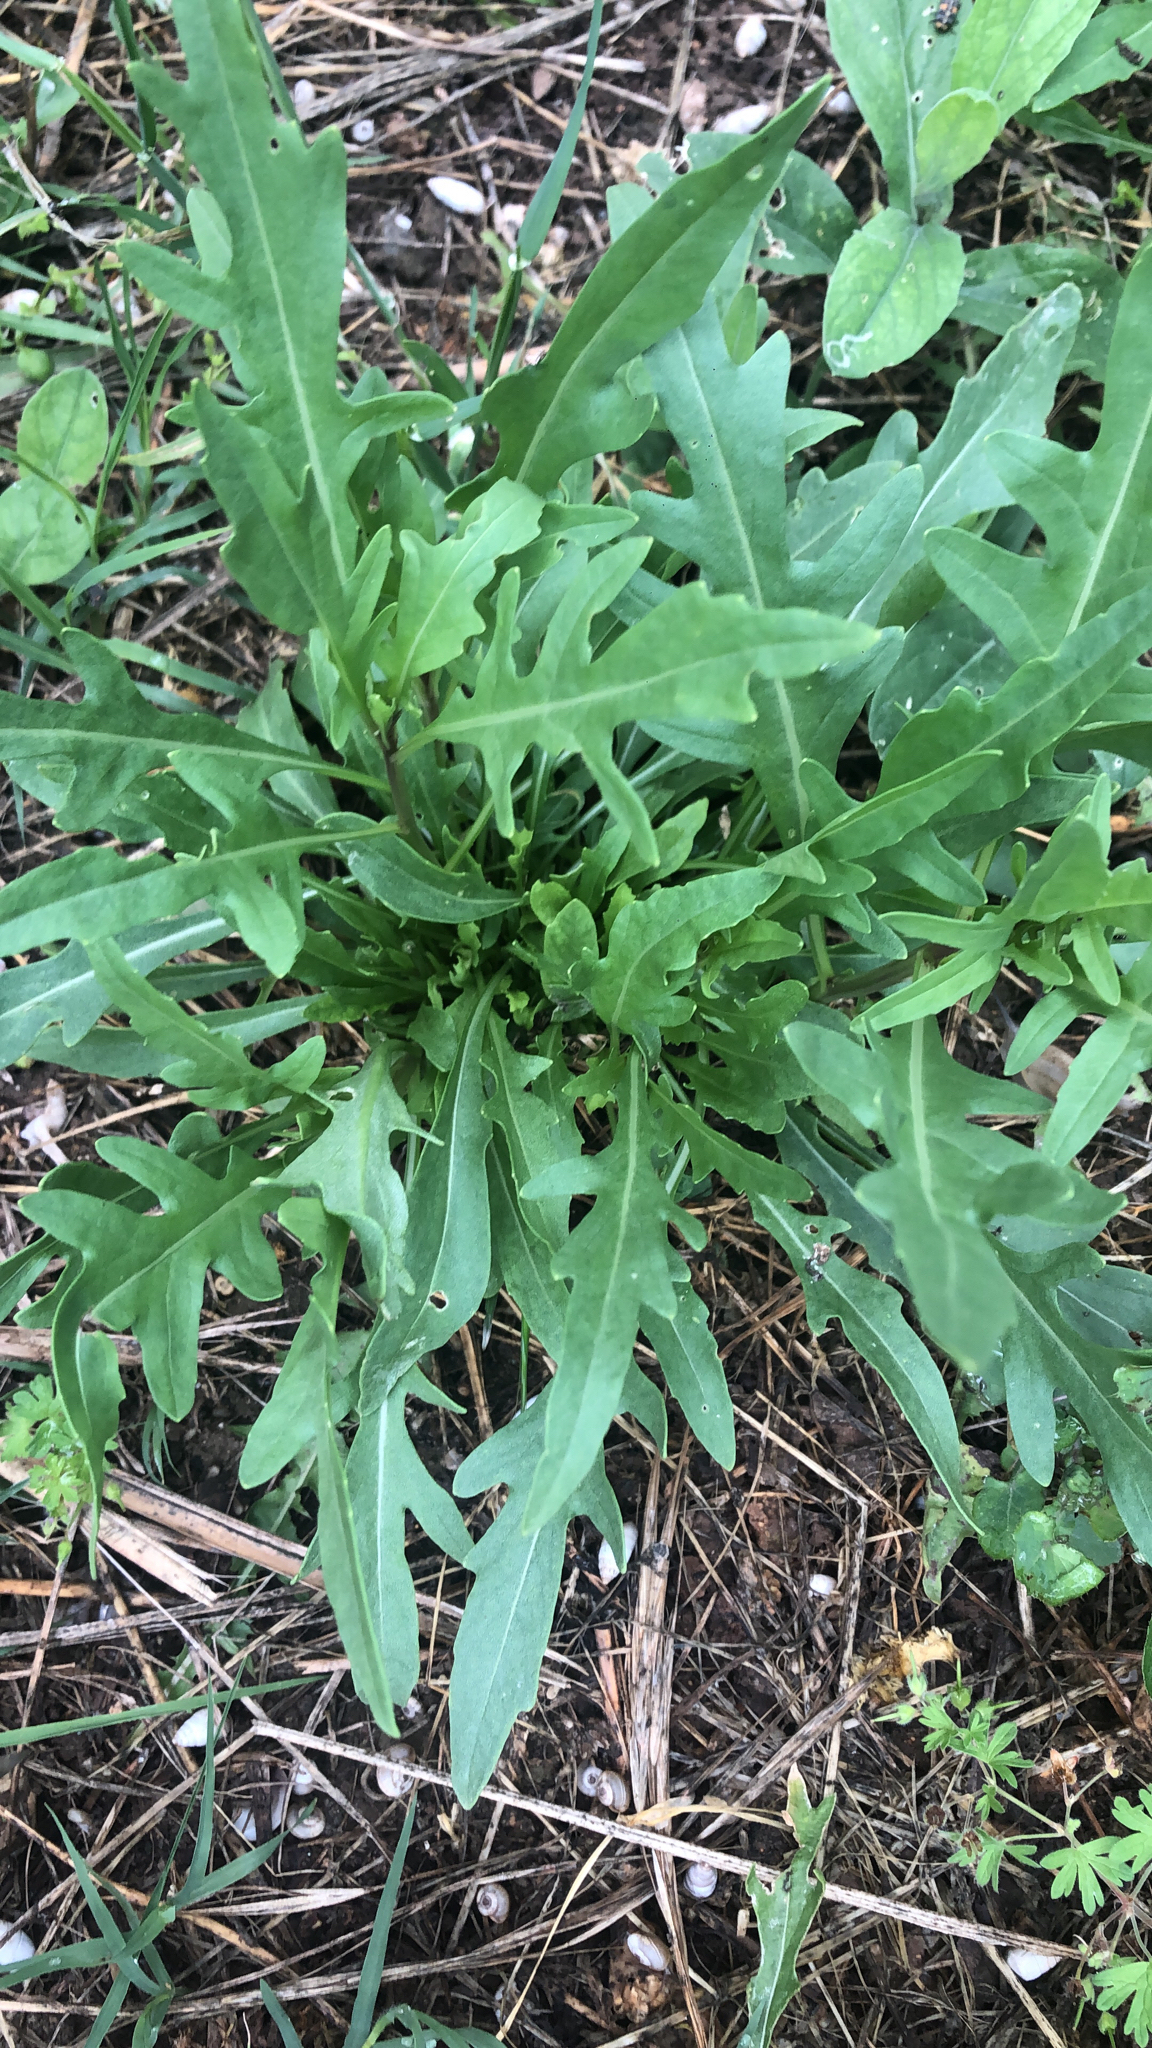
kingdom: Plantae
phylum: Tracheophyta
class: Magnoliopsida
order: Brassicales
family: Brassicaceae
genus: Diplotaxis
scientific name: Diplotaxis tenuifolia
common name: Perennial wall-rocket
